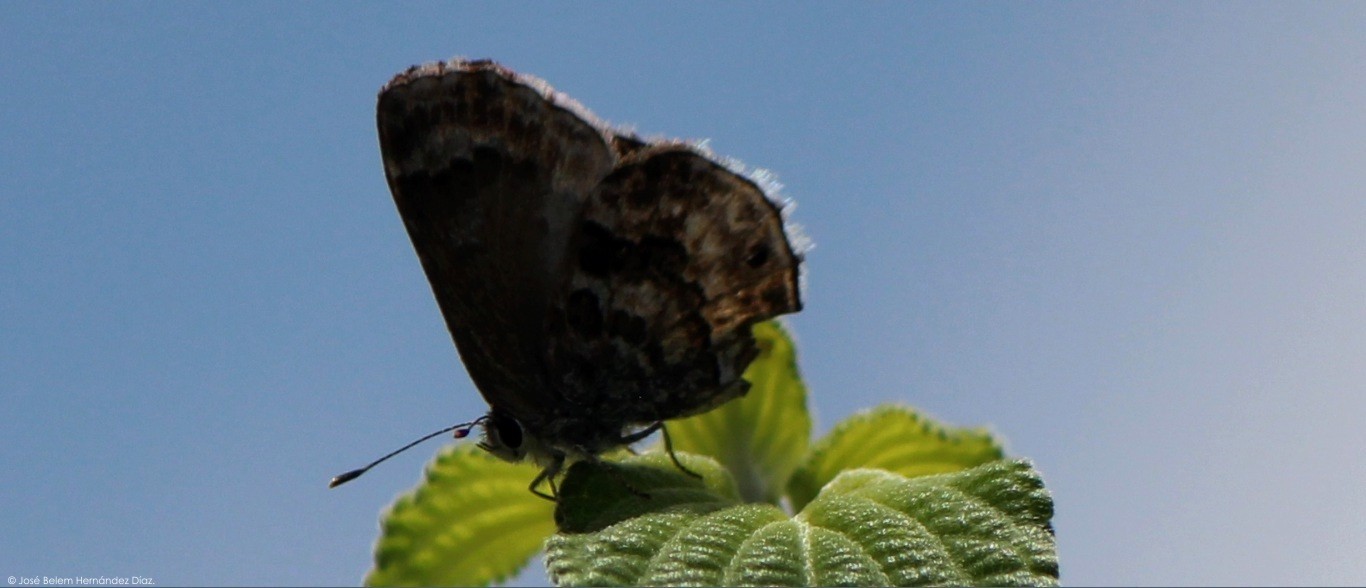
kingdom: Animalia
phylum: Arthropoda
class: Insecta
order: Lepidoptera
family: Lycaenidae
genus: Strymon
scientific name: Strymon bazochii
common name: Lantana scrub-hairstreak
